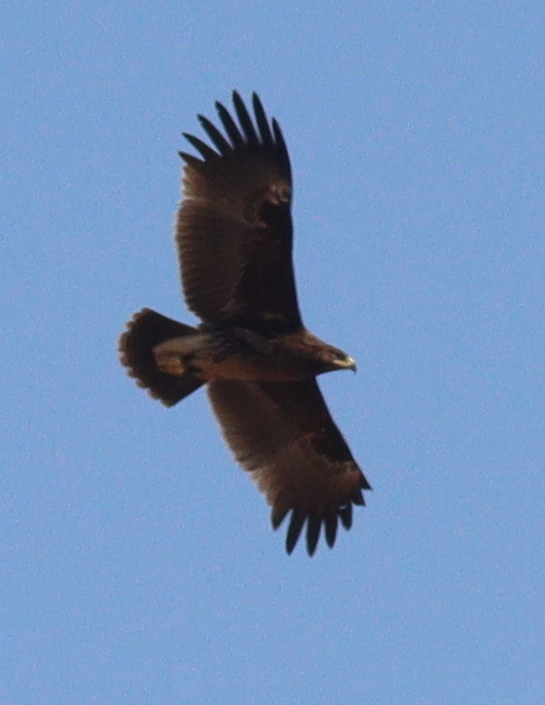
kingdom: Animalia
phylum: Chordata
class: Aves
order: Accipitriformes
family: Accipitridae
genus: Aquila
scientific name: Aquila clanga
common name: Greater spotted eagle
